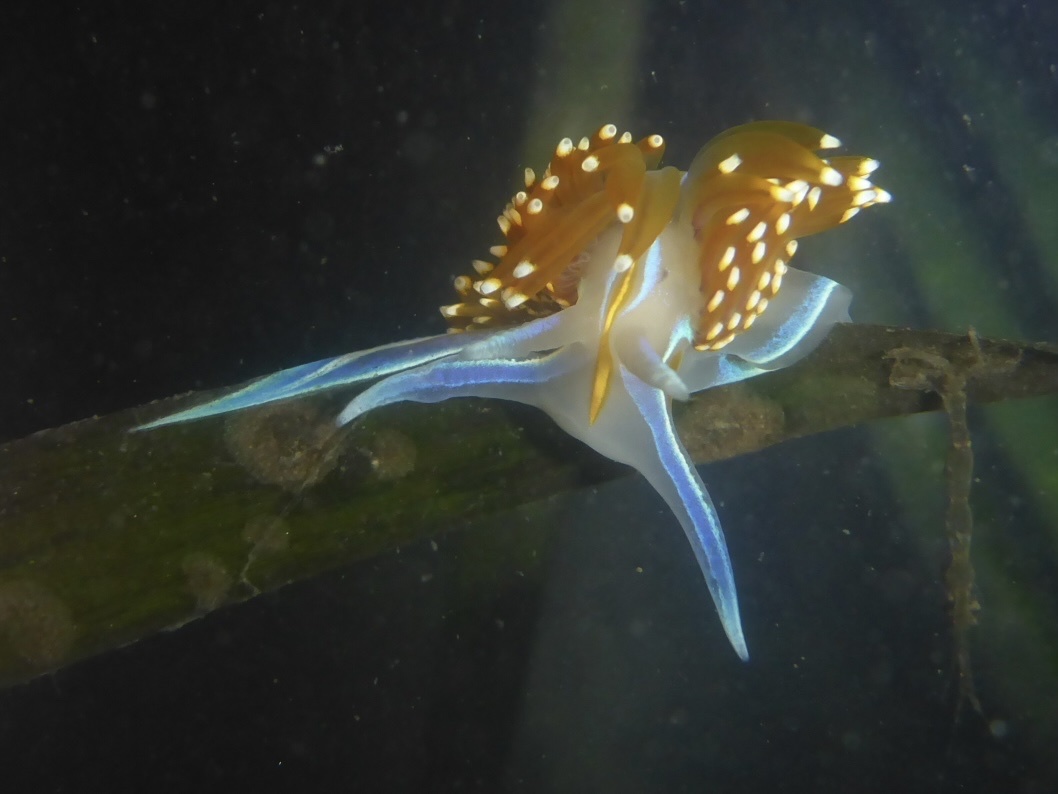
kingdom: Animalia
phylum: Mollusca
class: Gastropoda
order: Nudibranchia
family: Myrrhinidae
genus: Hermissenda
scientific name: Hermissenda opalescens
